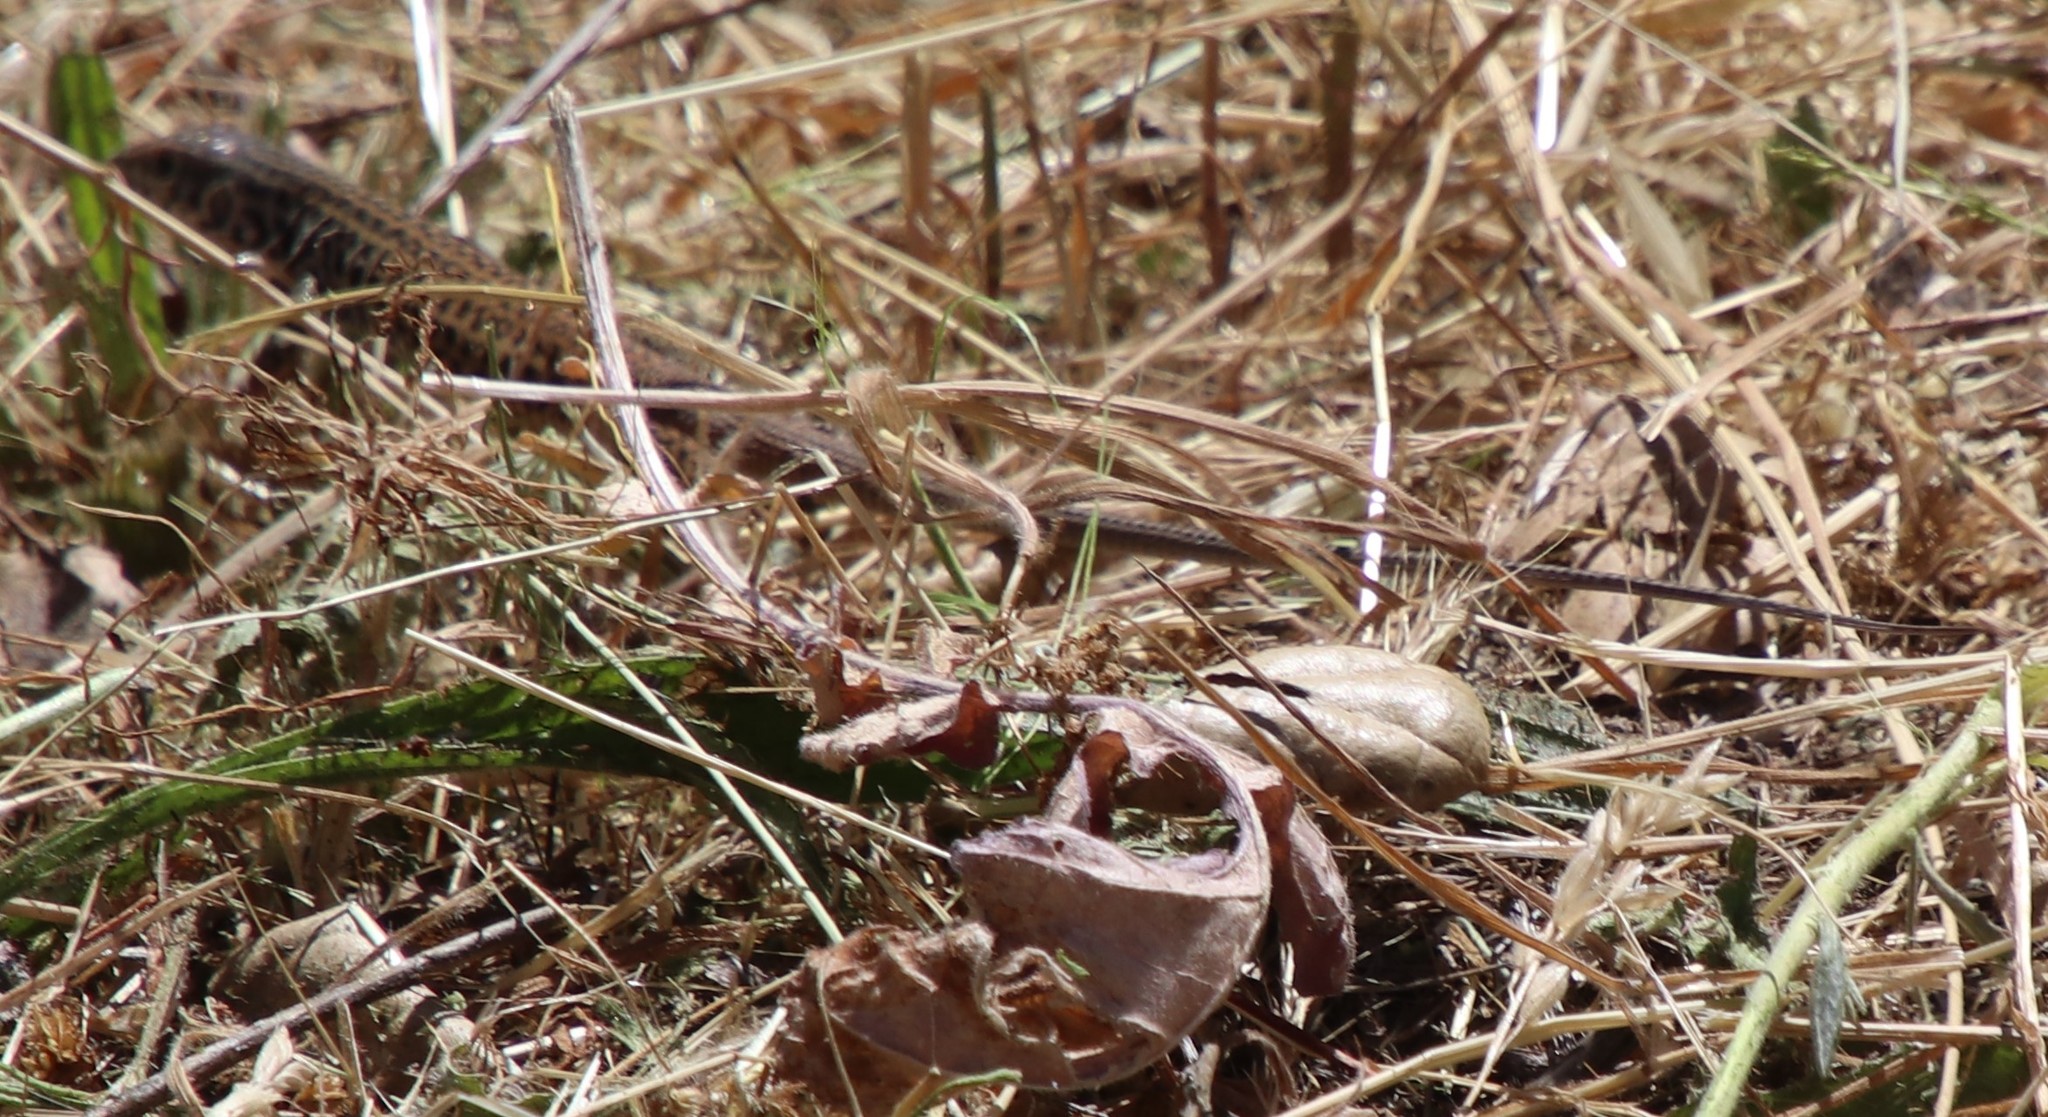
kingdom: Animalia
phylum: Chordata
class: Squamata
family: Teiidae
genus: Aspidoscelis
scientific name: Aspidoscelis tigris
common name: Tiger whiptail
